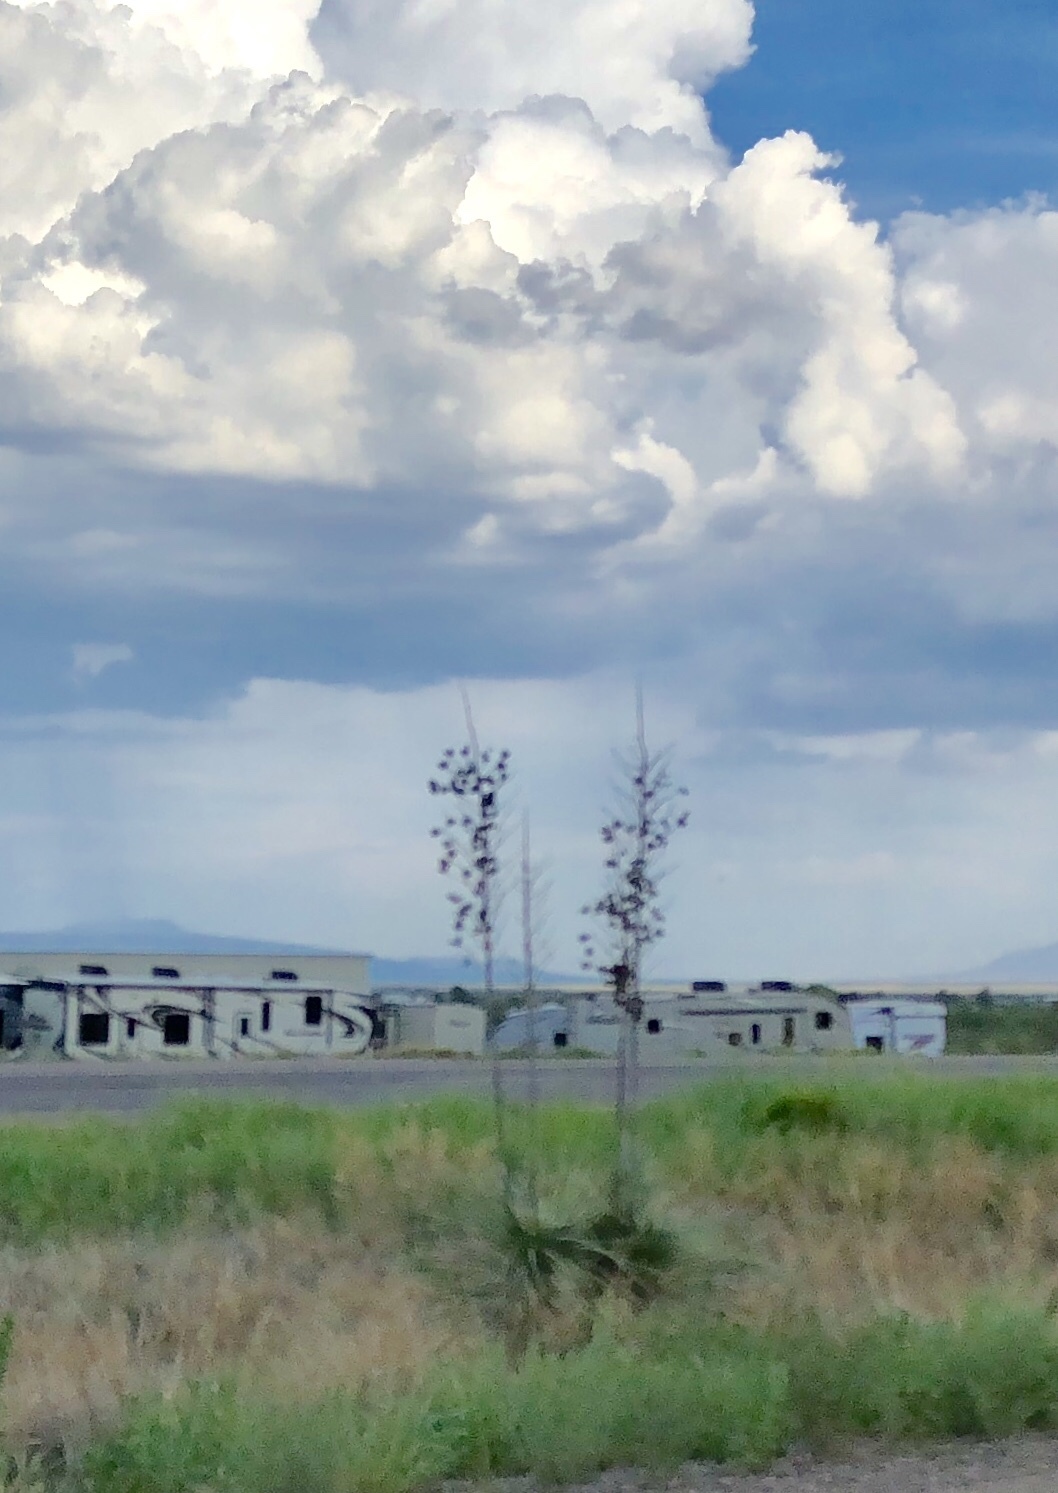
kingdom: Plantae
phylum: Tracheophyta
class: Liliopsida
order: Asparagales
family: Asparagaceae
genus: Yucca
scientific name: Yucca elata
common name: Palmella
